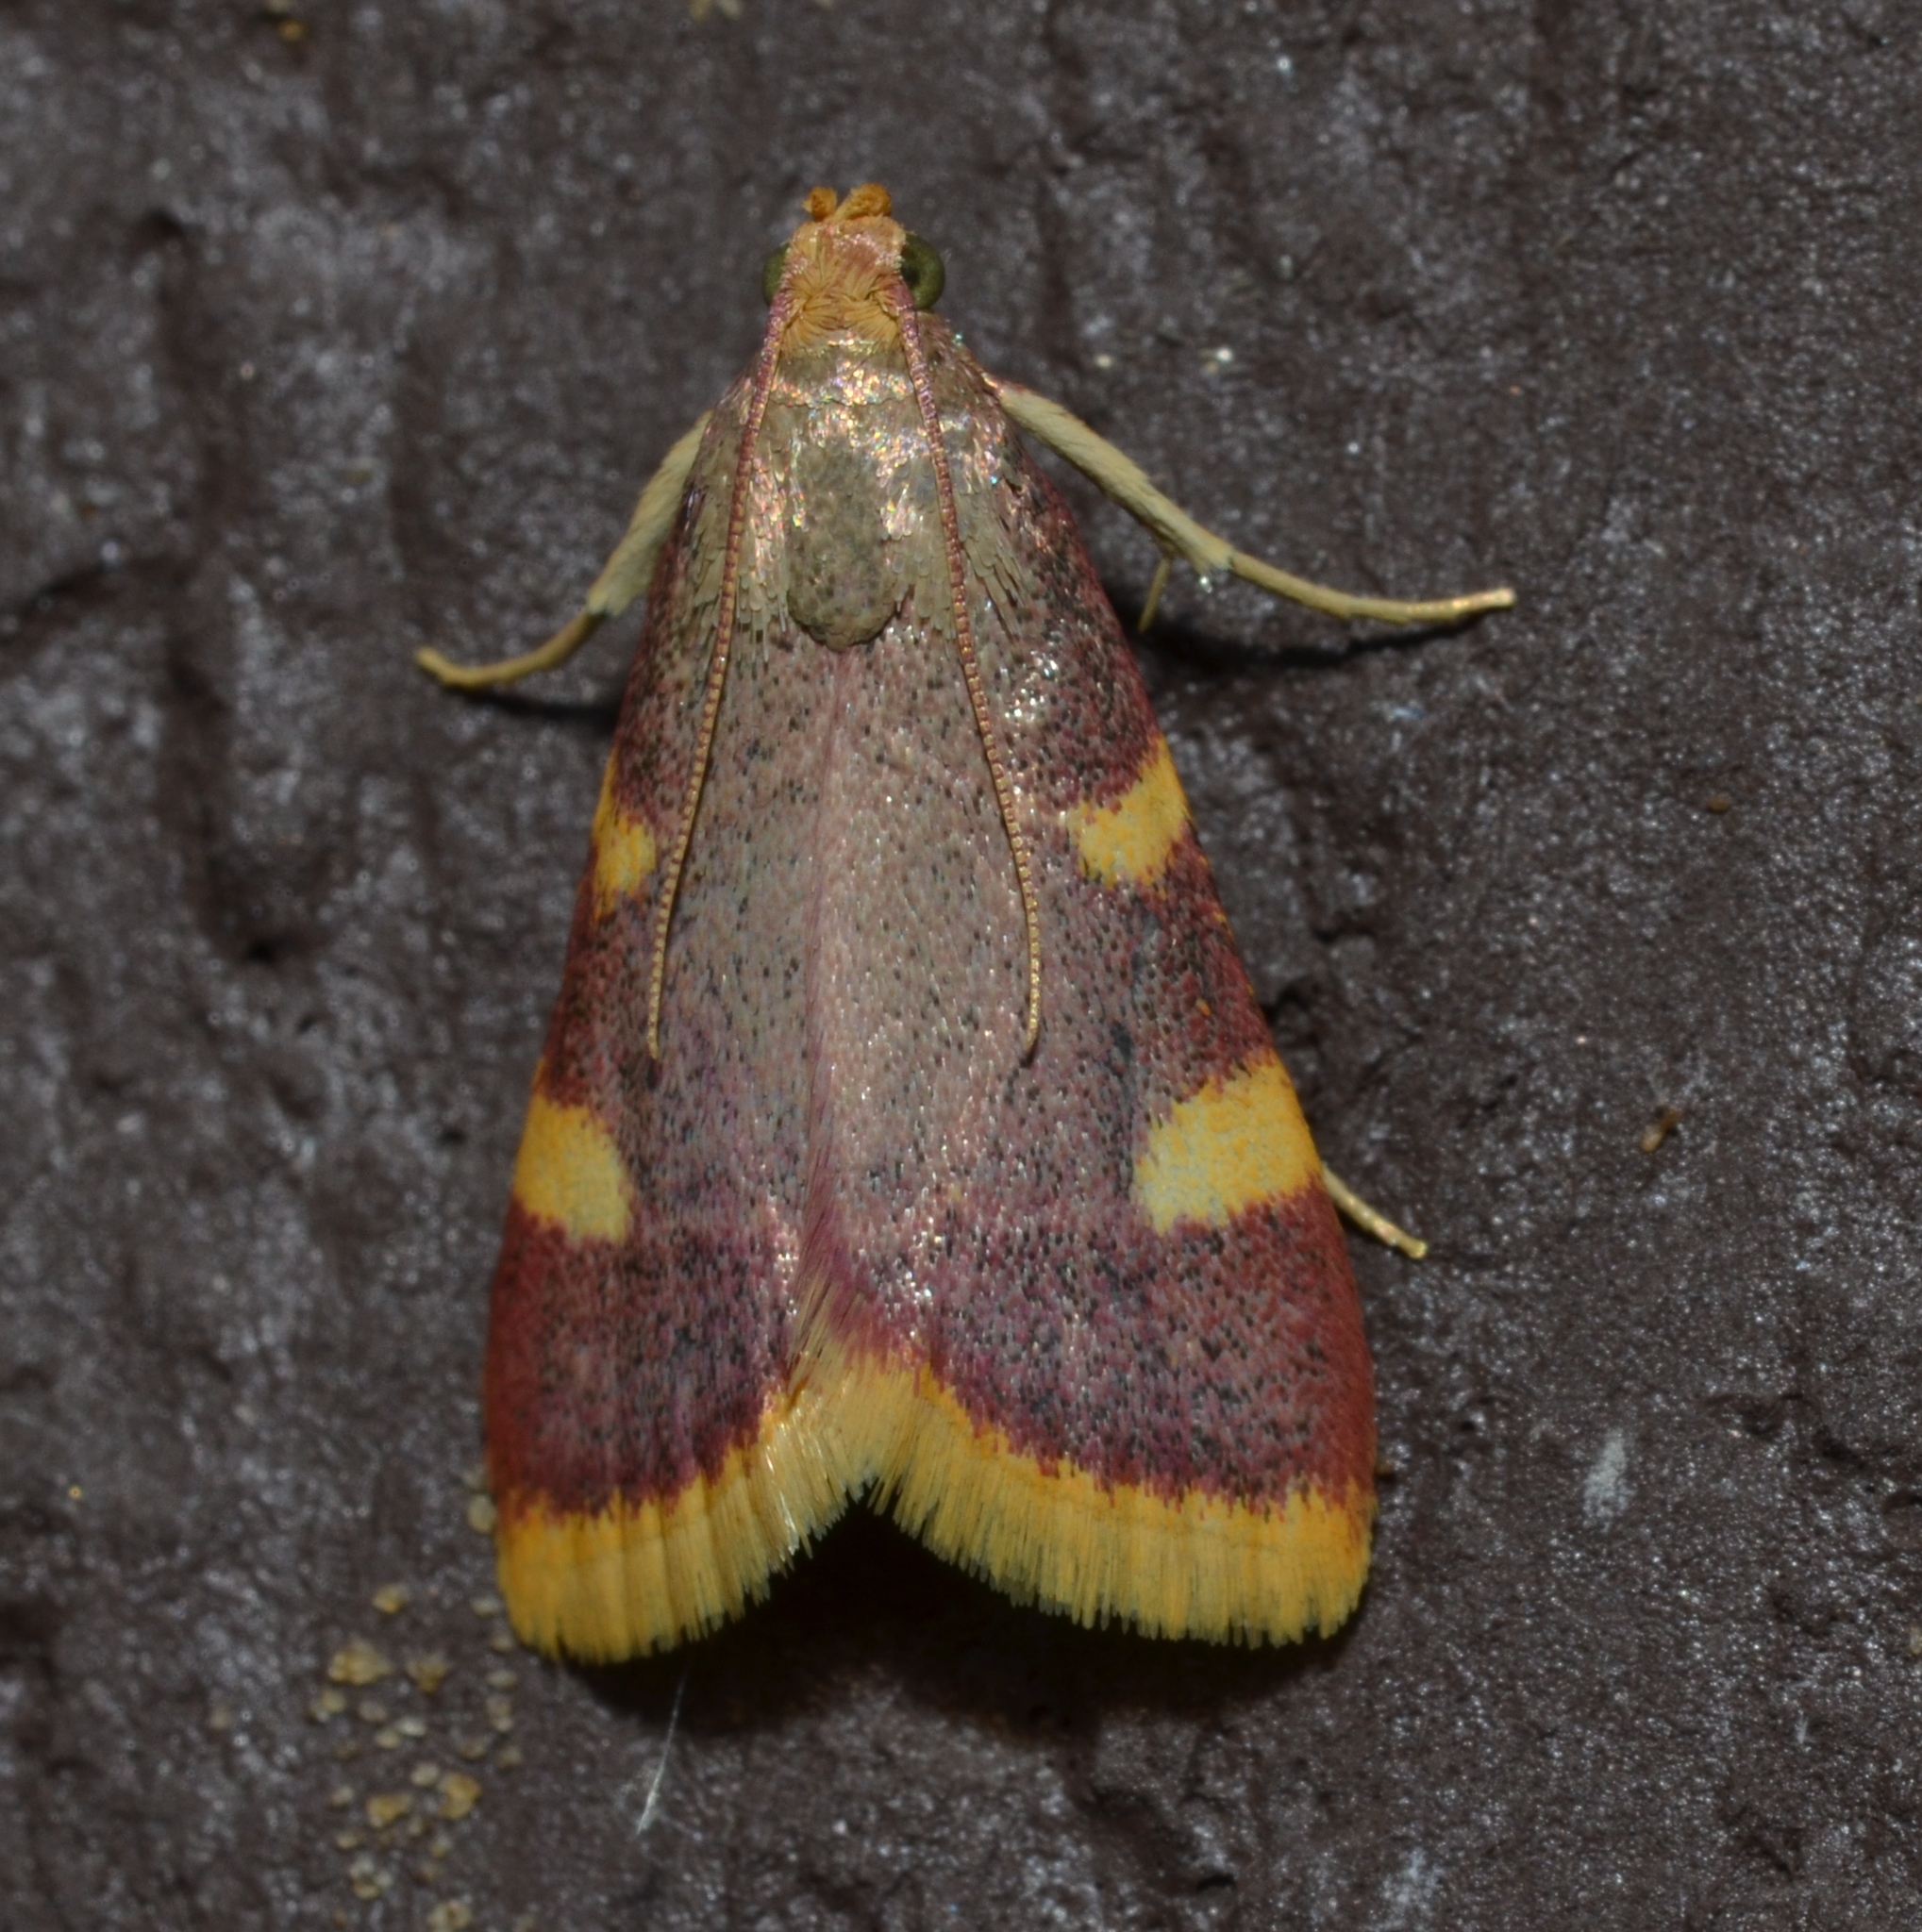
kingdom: Animalia
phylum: Arthropoda
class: Insecta
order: Lepidoptera
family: Pyralidae
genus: Hypsopygia
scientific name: Hypsopygia costalis
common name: Gold triangle
